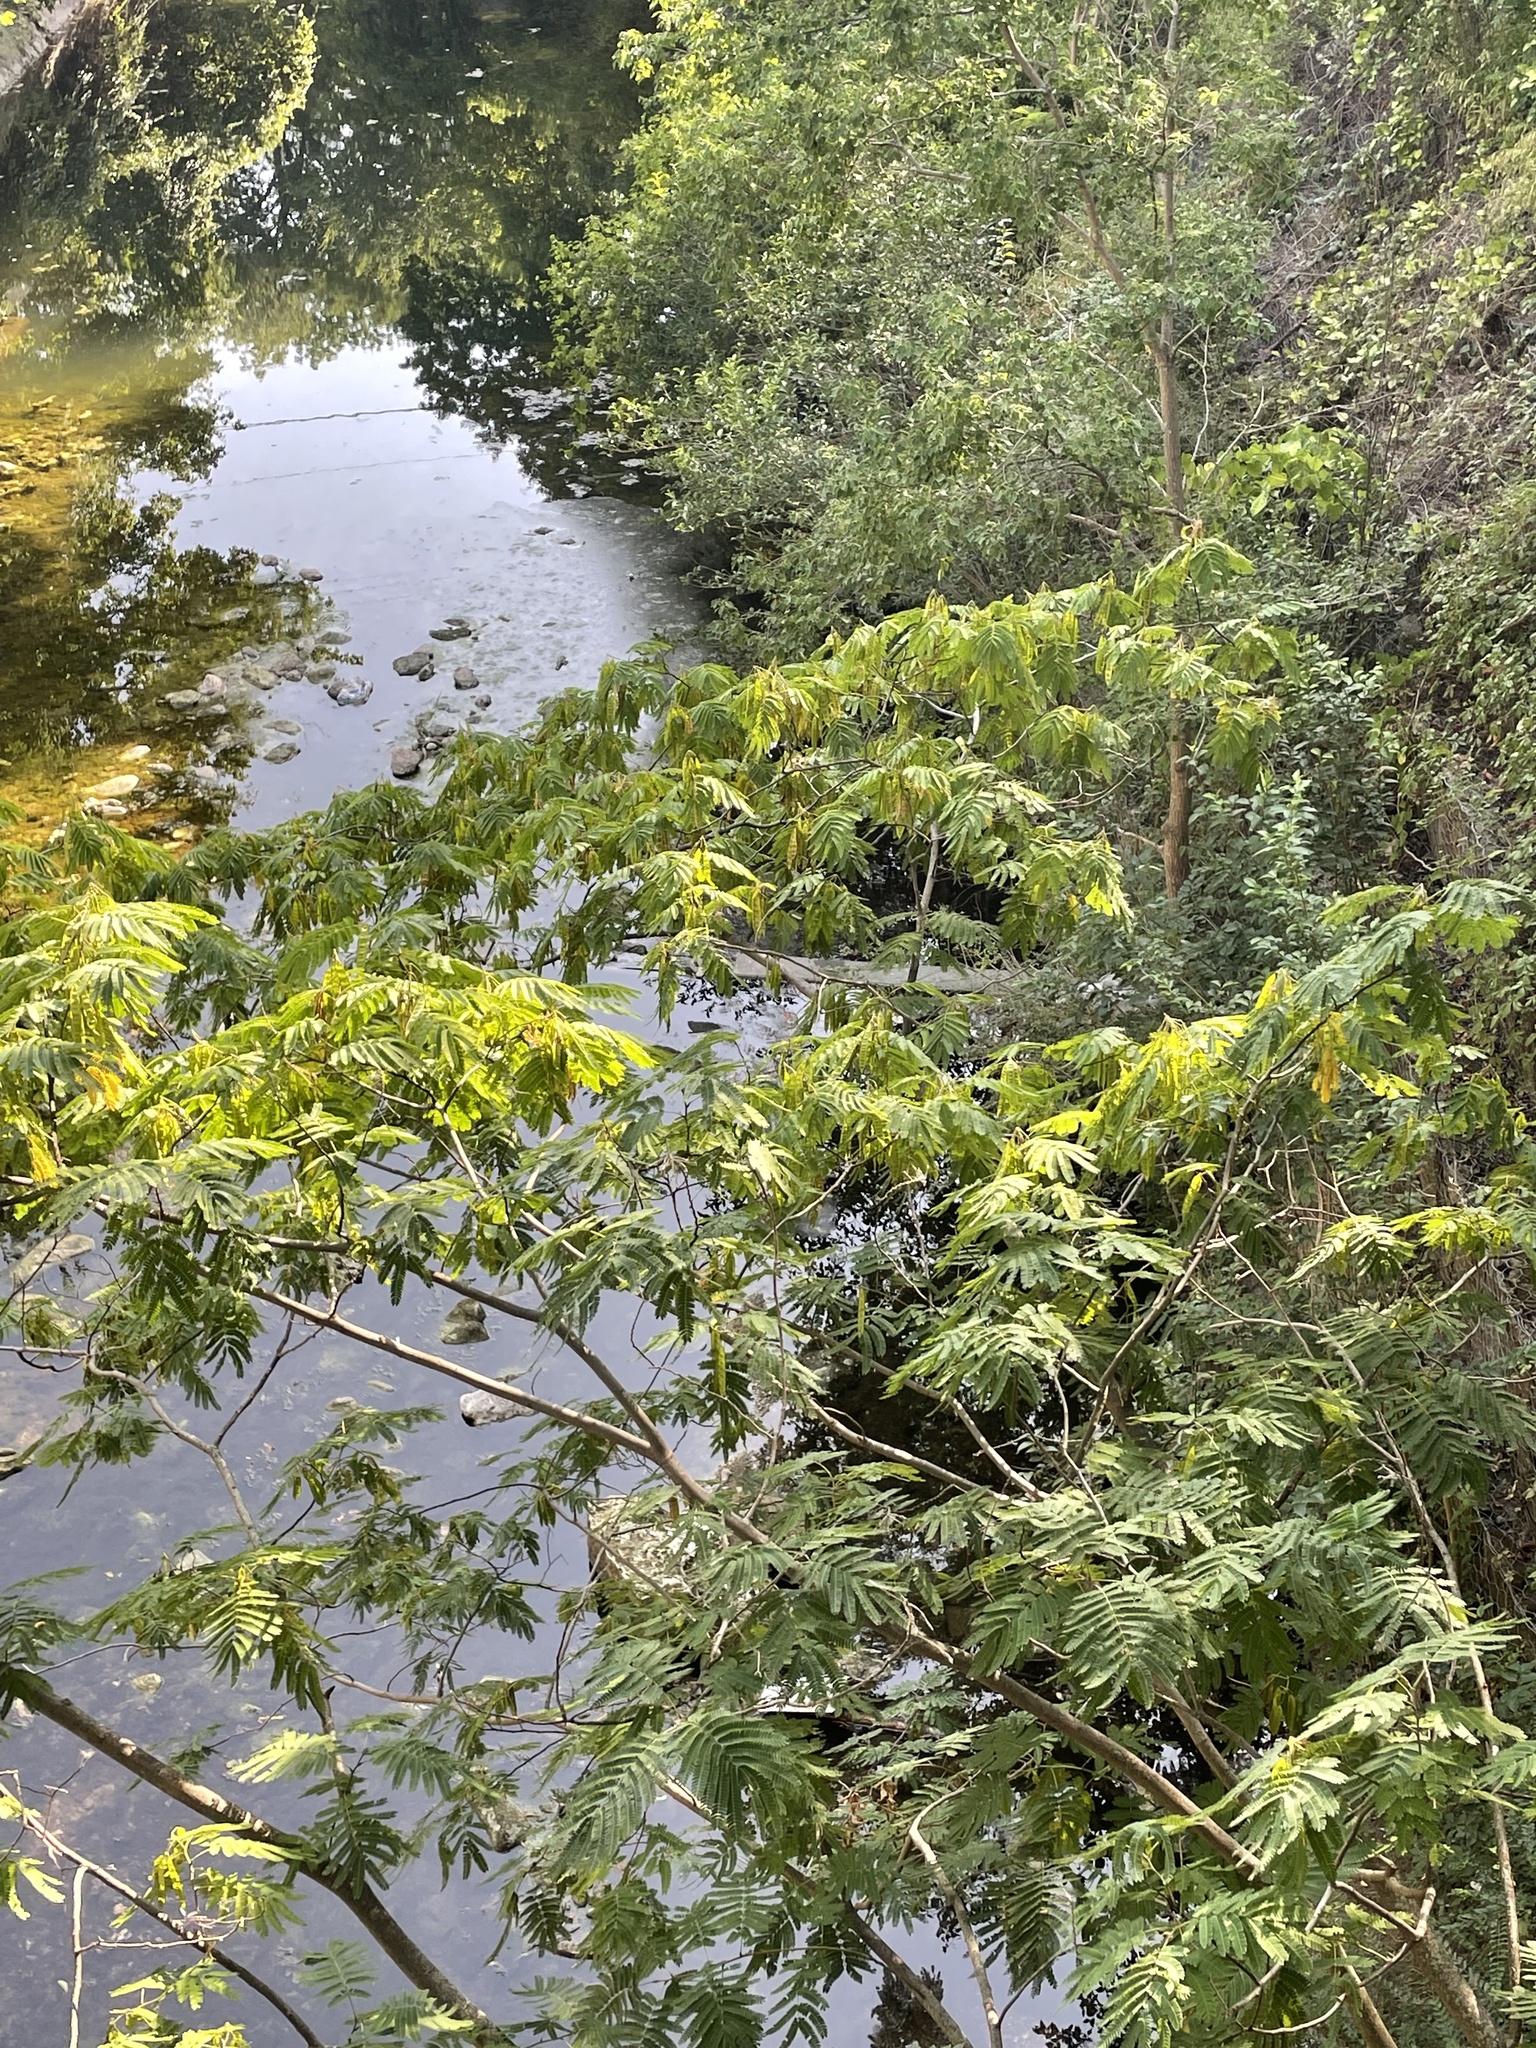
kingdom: Plantae
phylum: Tracheophyta
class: Magnoliopsida
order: Fabales
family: Fabaceae
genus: Albizia
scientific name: Albizia julibrissin
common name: Silktree
